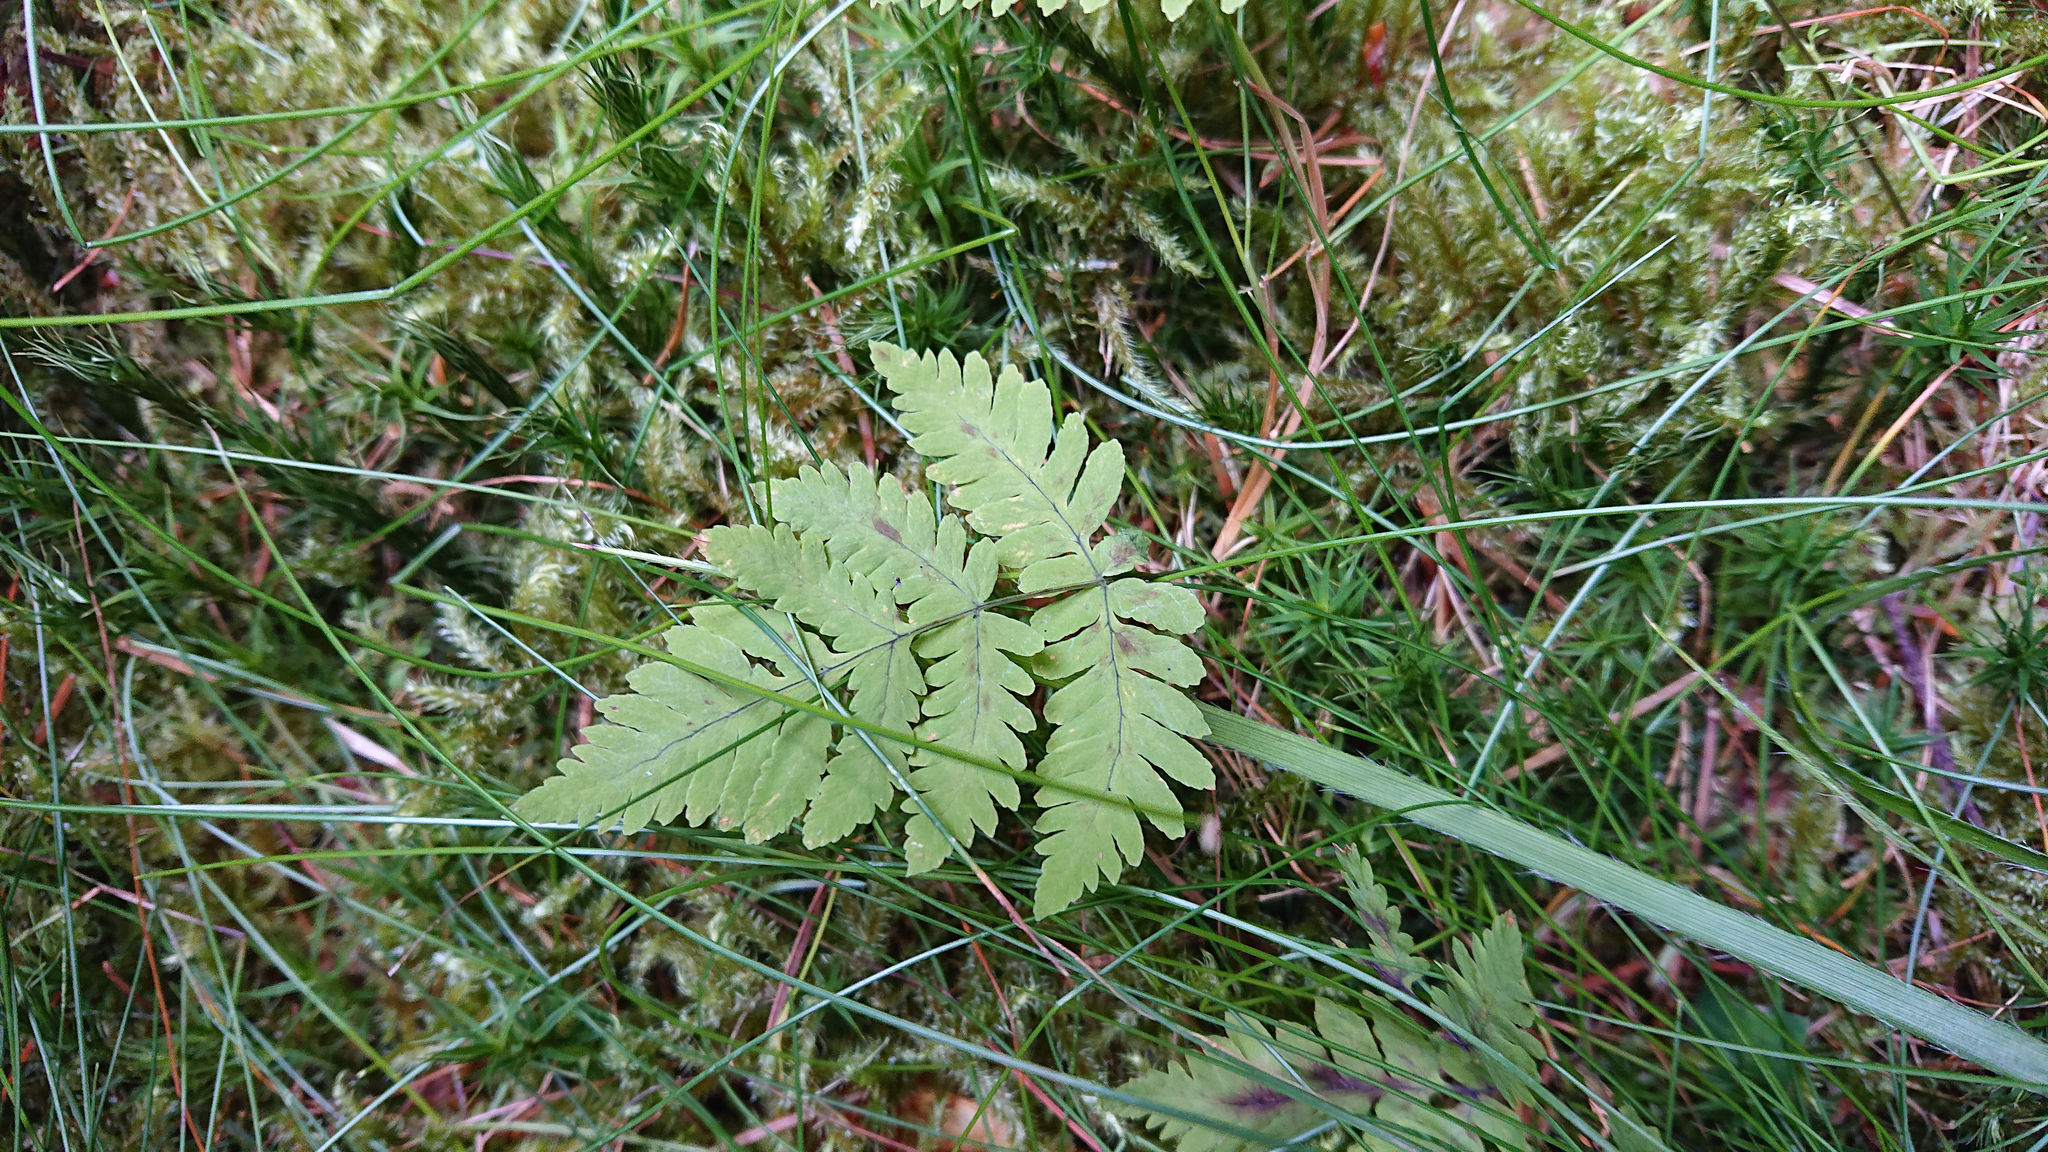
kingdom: Plantae
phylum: Tracheophyta
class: Polypodiopsida
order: Polypodiales
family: Cystopteridaceae
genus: Gymnocarpium
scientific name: Gymnocarpium dryopteris
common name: Oak fern
